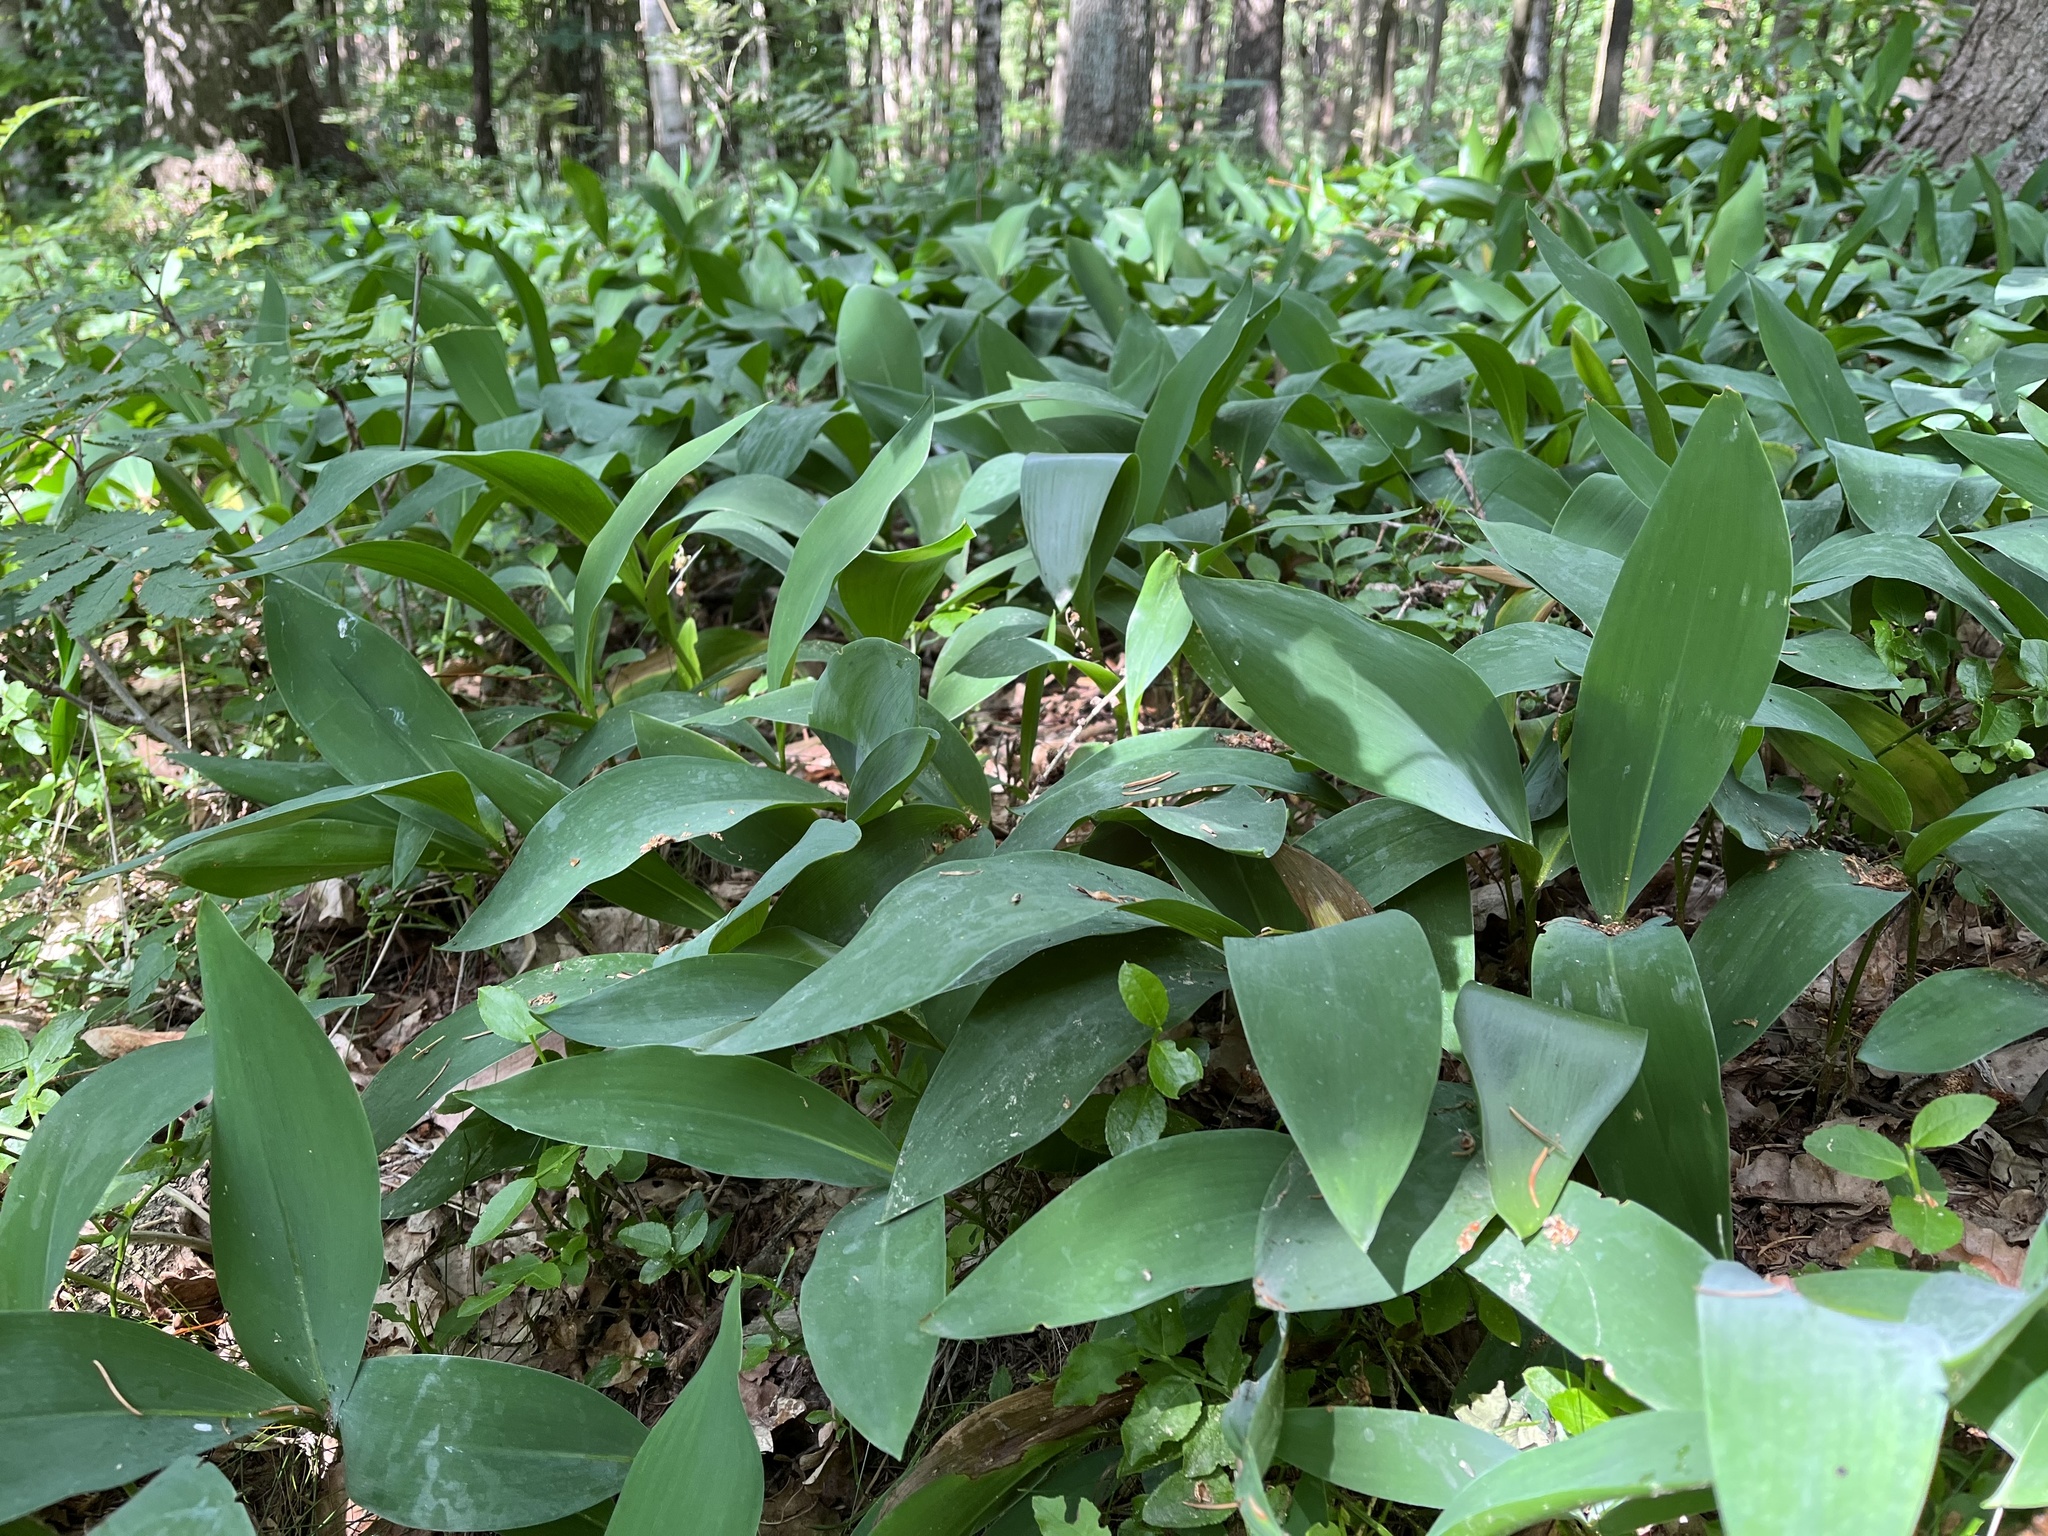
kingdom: Plantae
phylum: Tracheophyta
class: Liliopsida
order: Asparagales
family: Asparagaceae
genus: Convallaria
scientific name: Convallaria majalis
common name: Lily-of-the-valley
